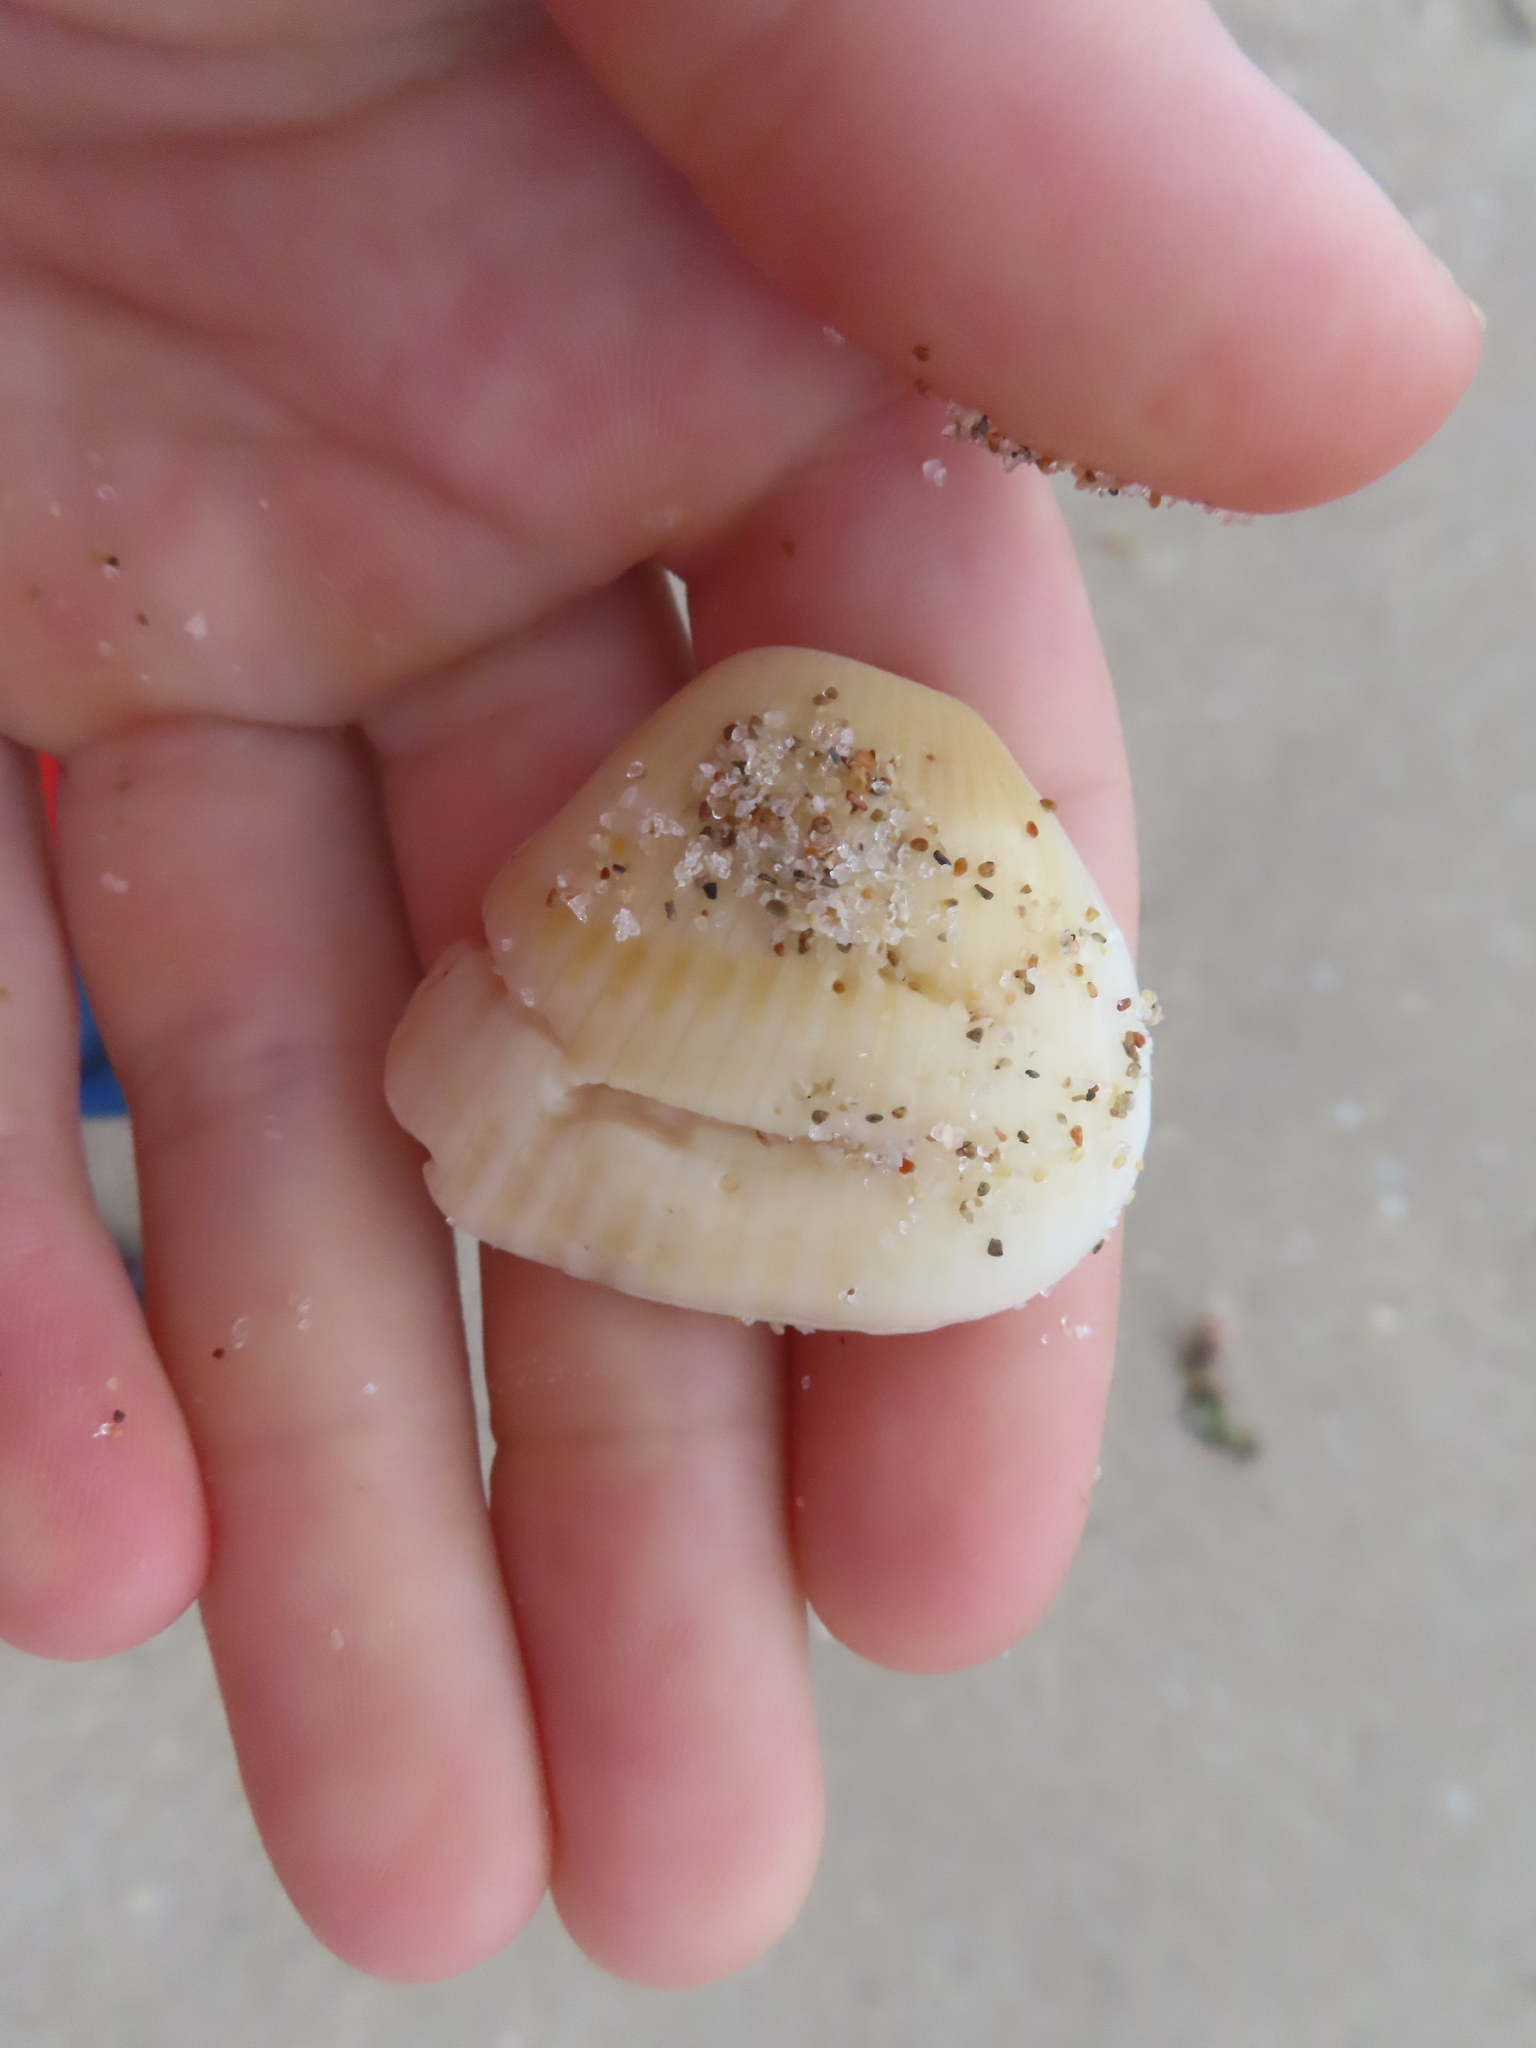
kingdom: Animalia
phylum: Mollusca
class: Bivalvia
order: Arcida
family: Noetiidae
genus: Noetia
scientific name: Noetia ponderosa
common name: Ponderous ark
